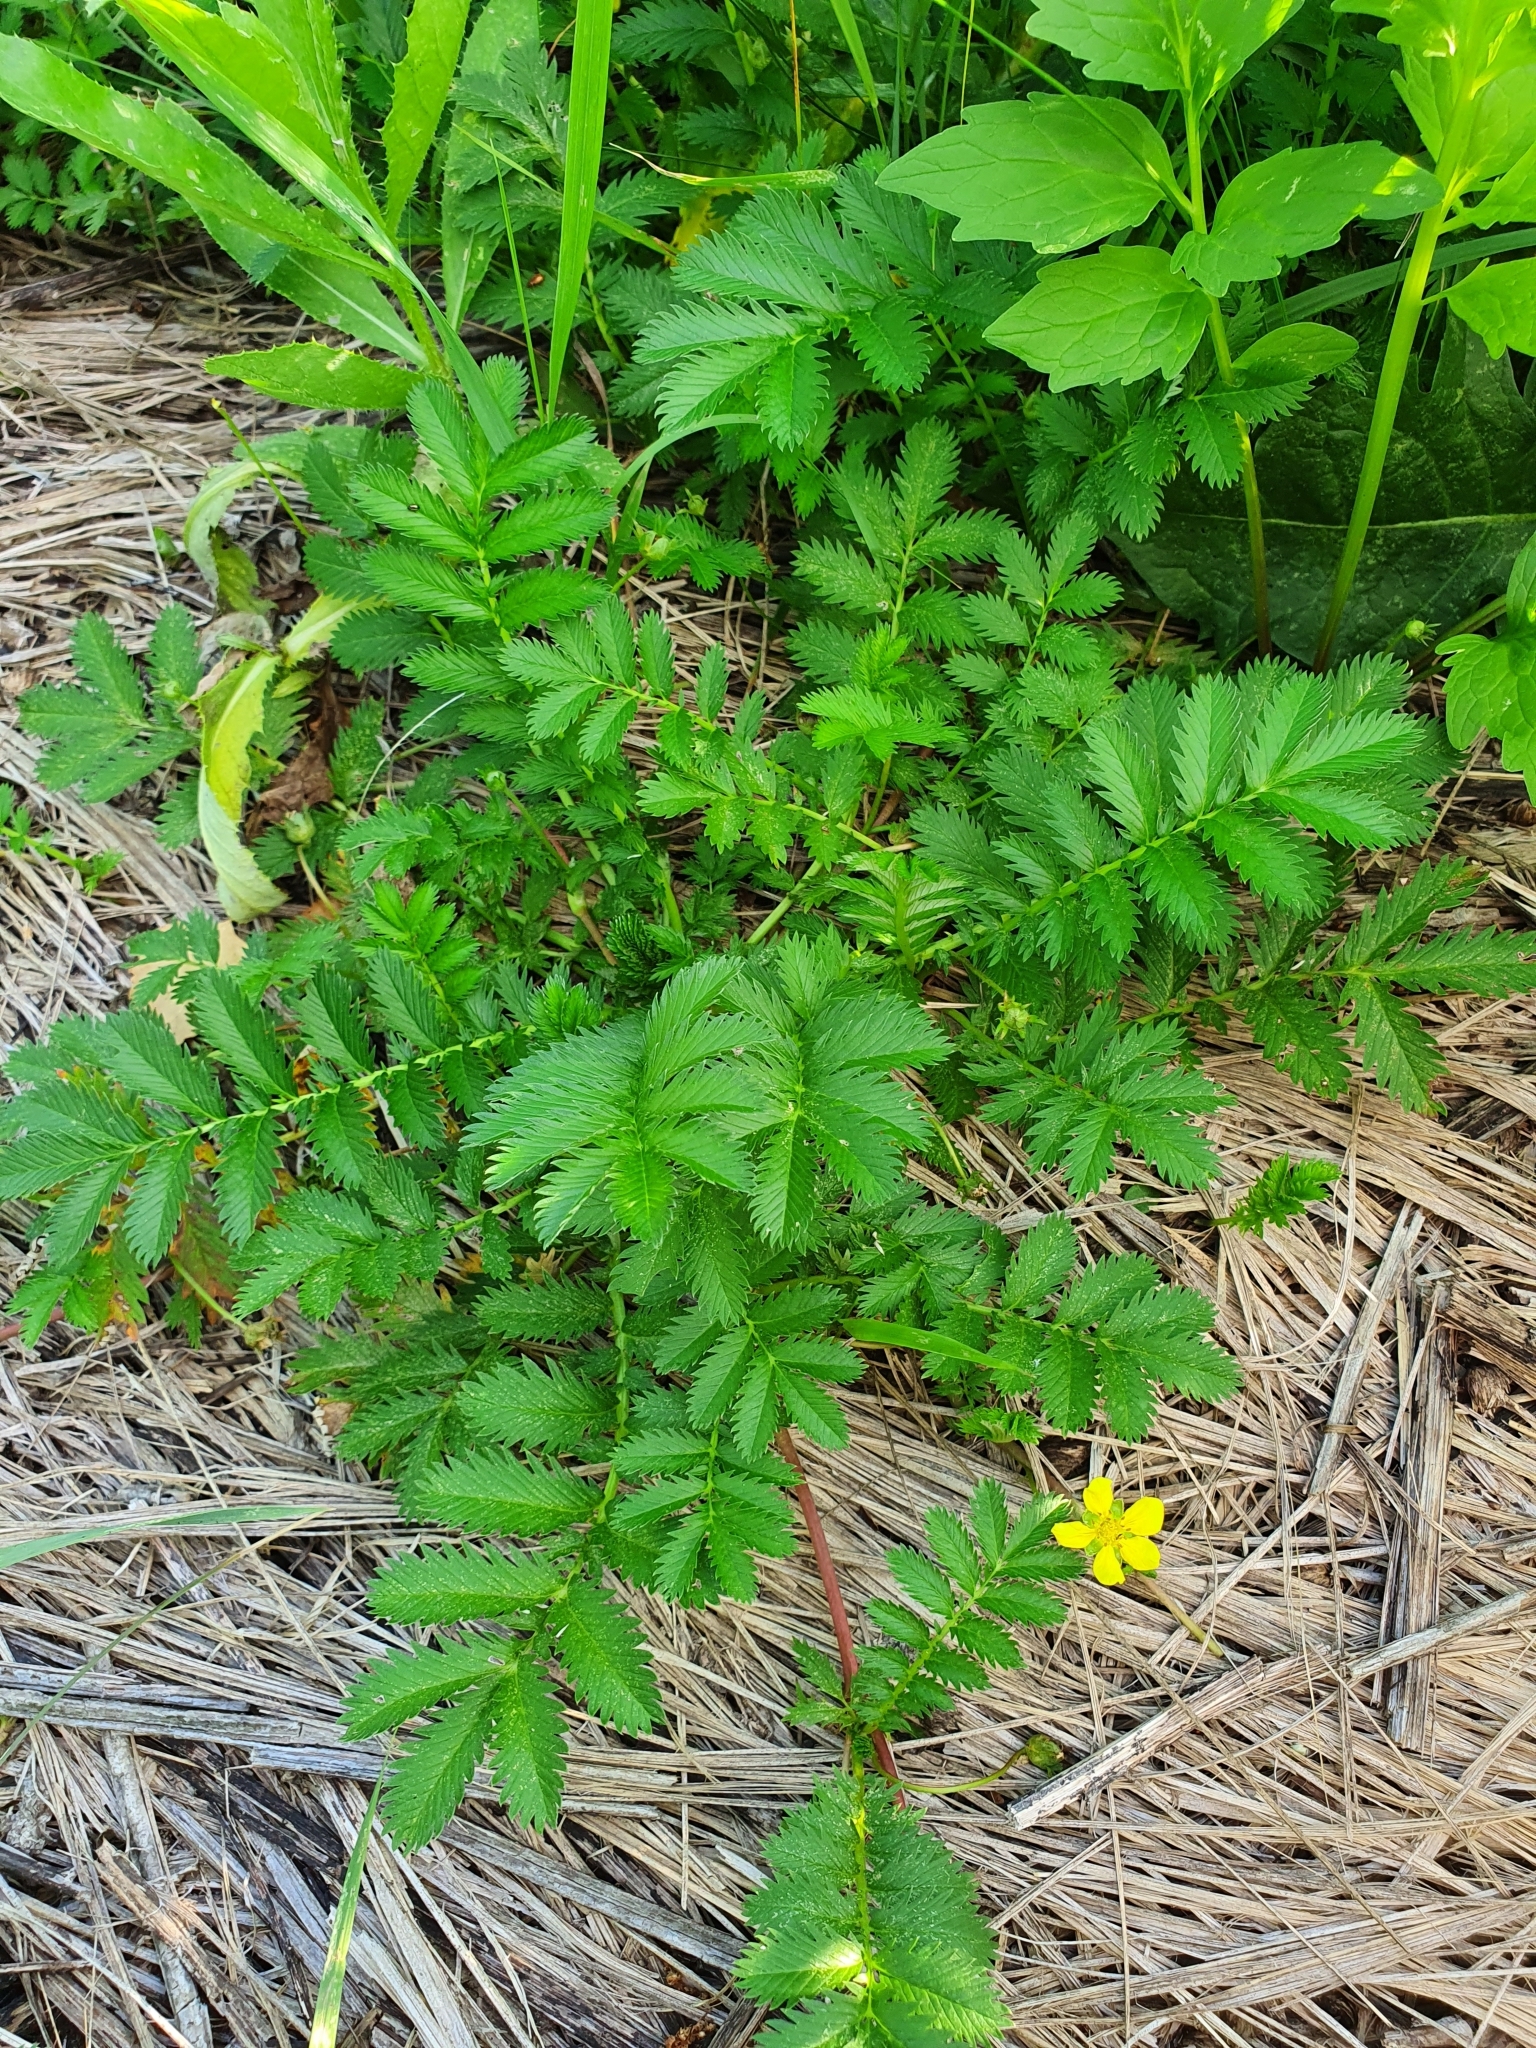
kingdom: Plantae
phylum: Tracheophyta
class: Magnoliopsida
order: Rosales
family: Rosaceae
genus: Argentina
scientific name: Argentina anserina
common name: Common silverweed
